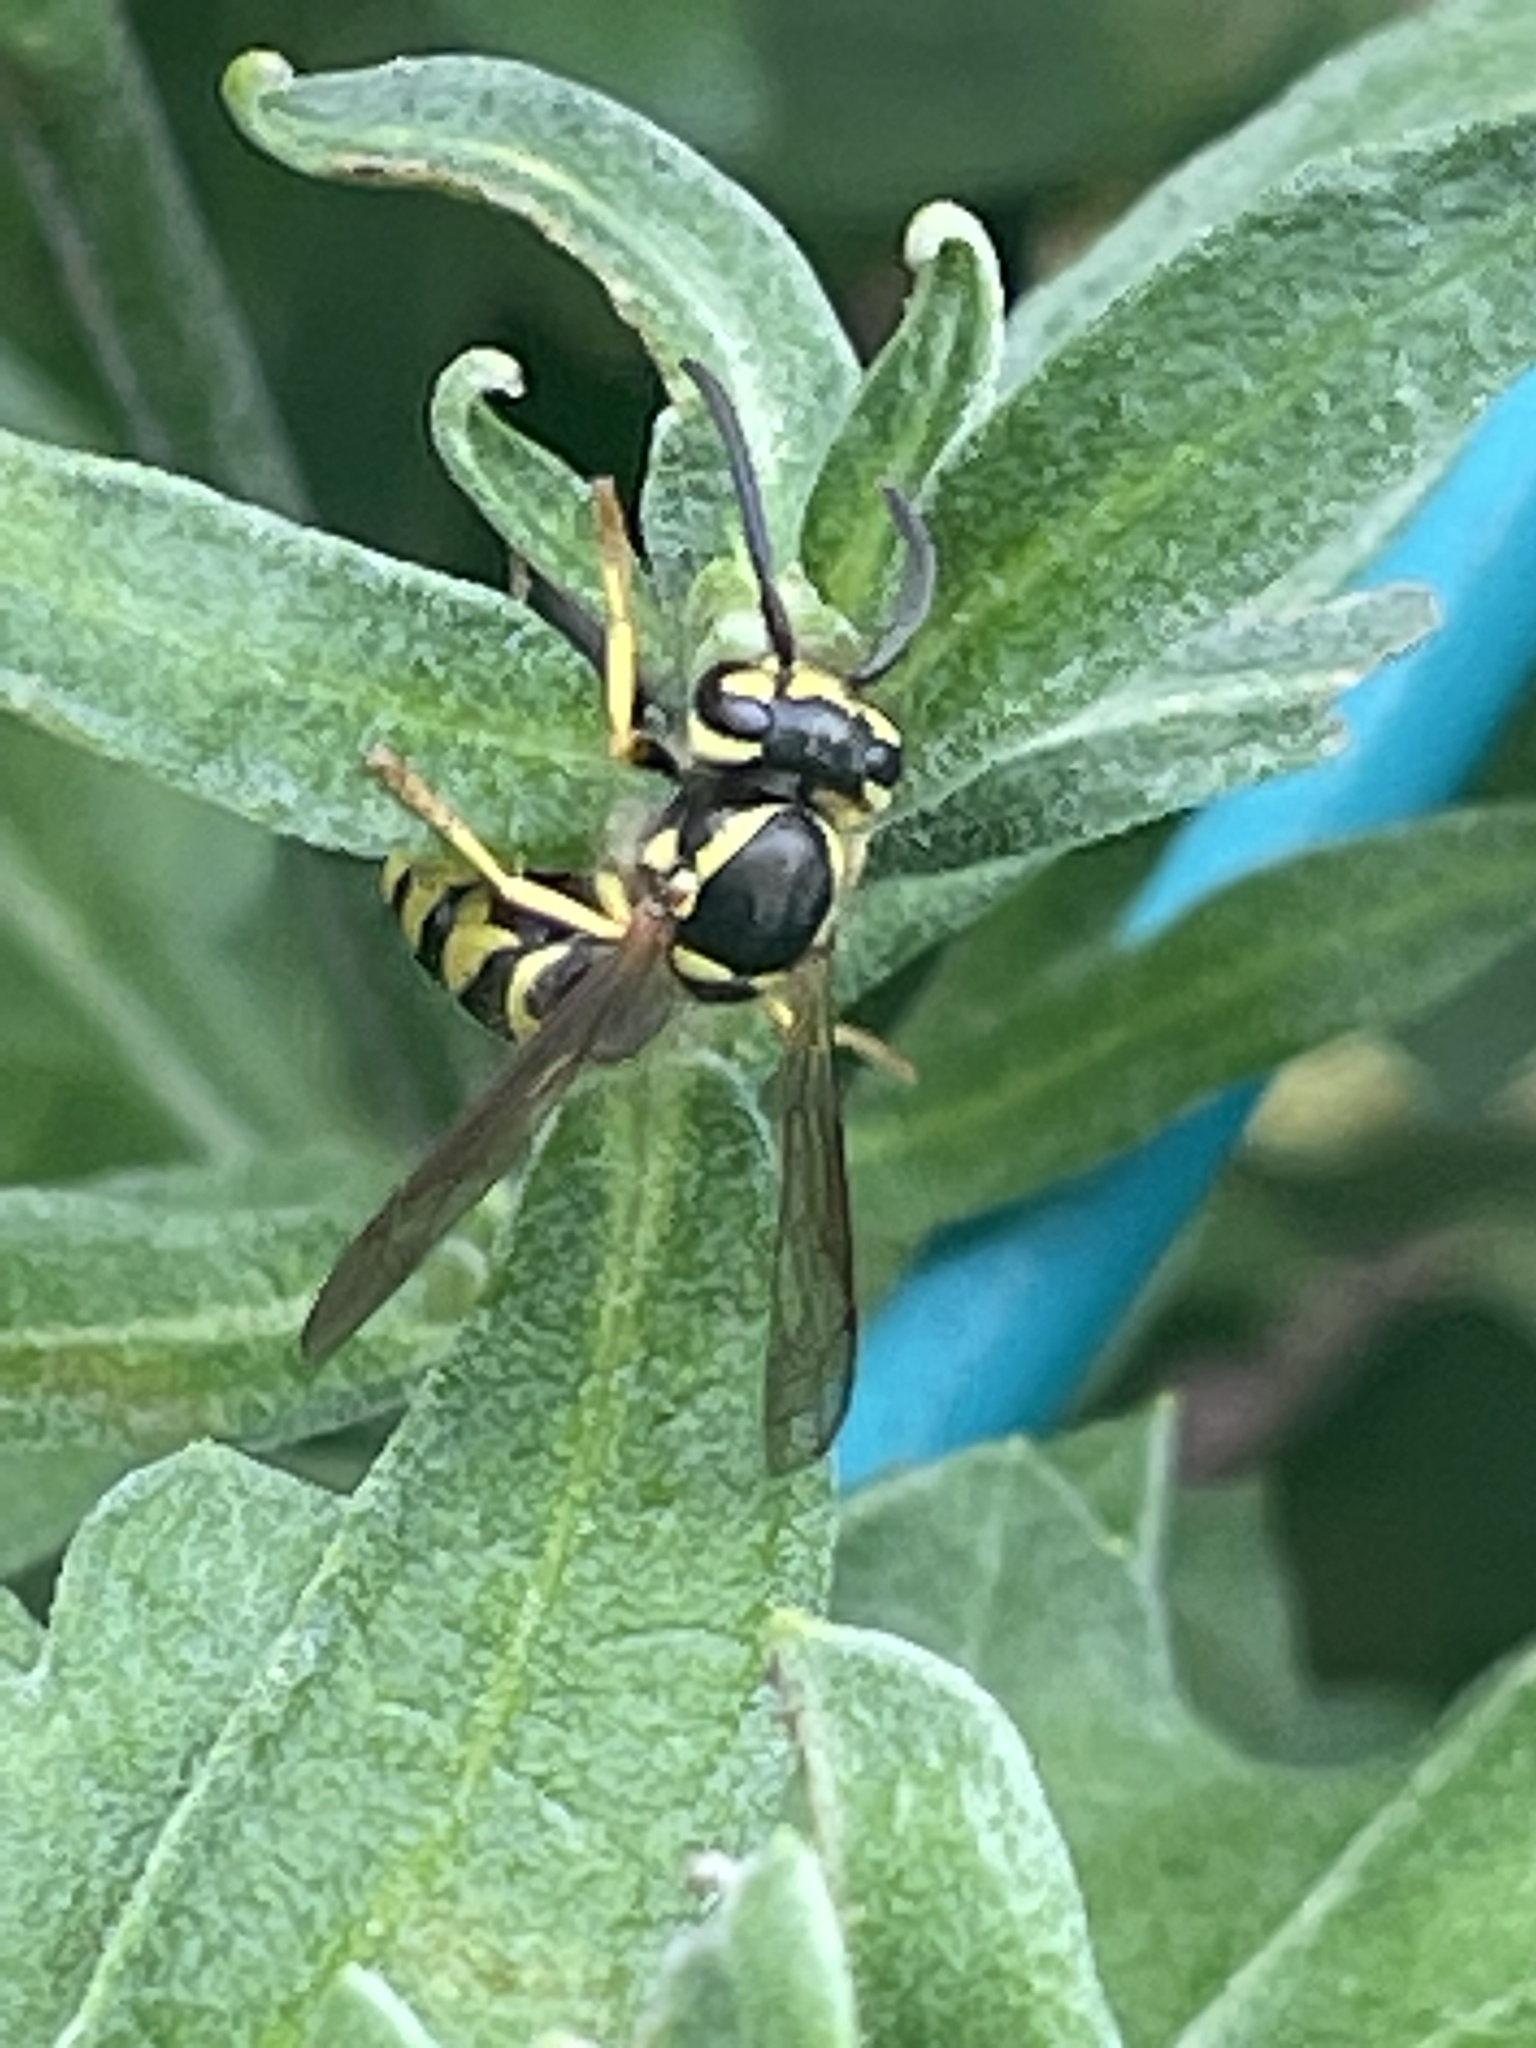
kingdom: Animalia
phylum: Arthropoda
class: Insecta
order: Hymenoptera
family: Vespidae
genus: Vespula
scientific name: Vespula maculifrons
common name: Eastern yellowjacket
